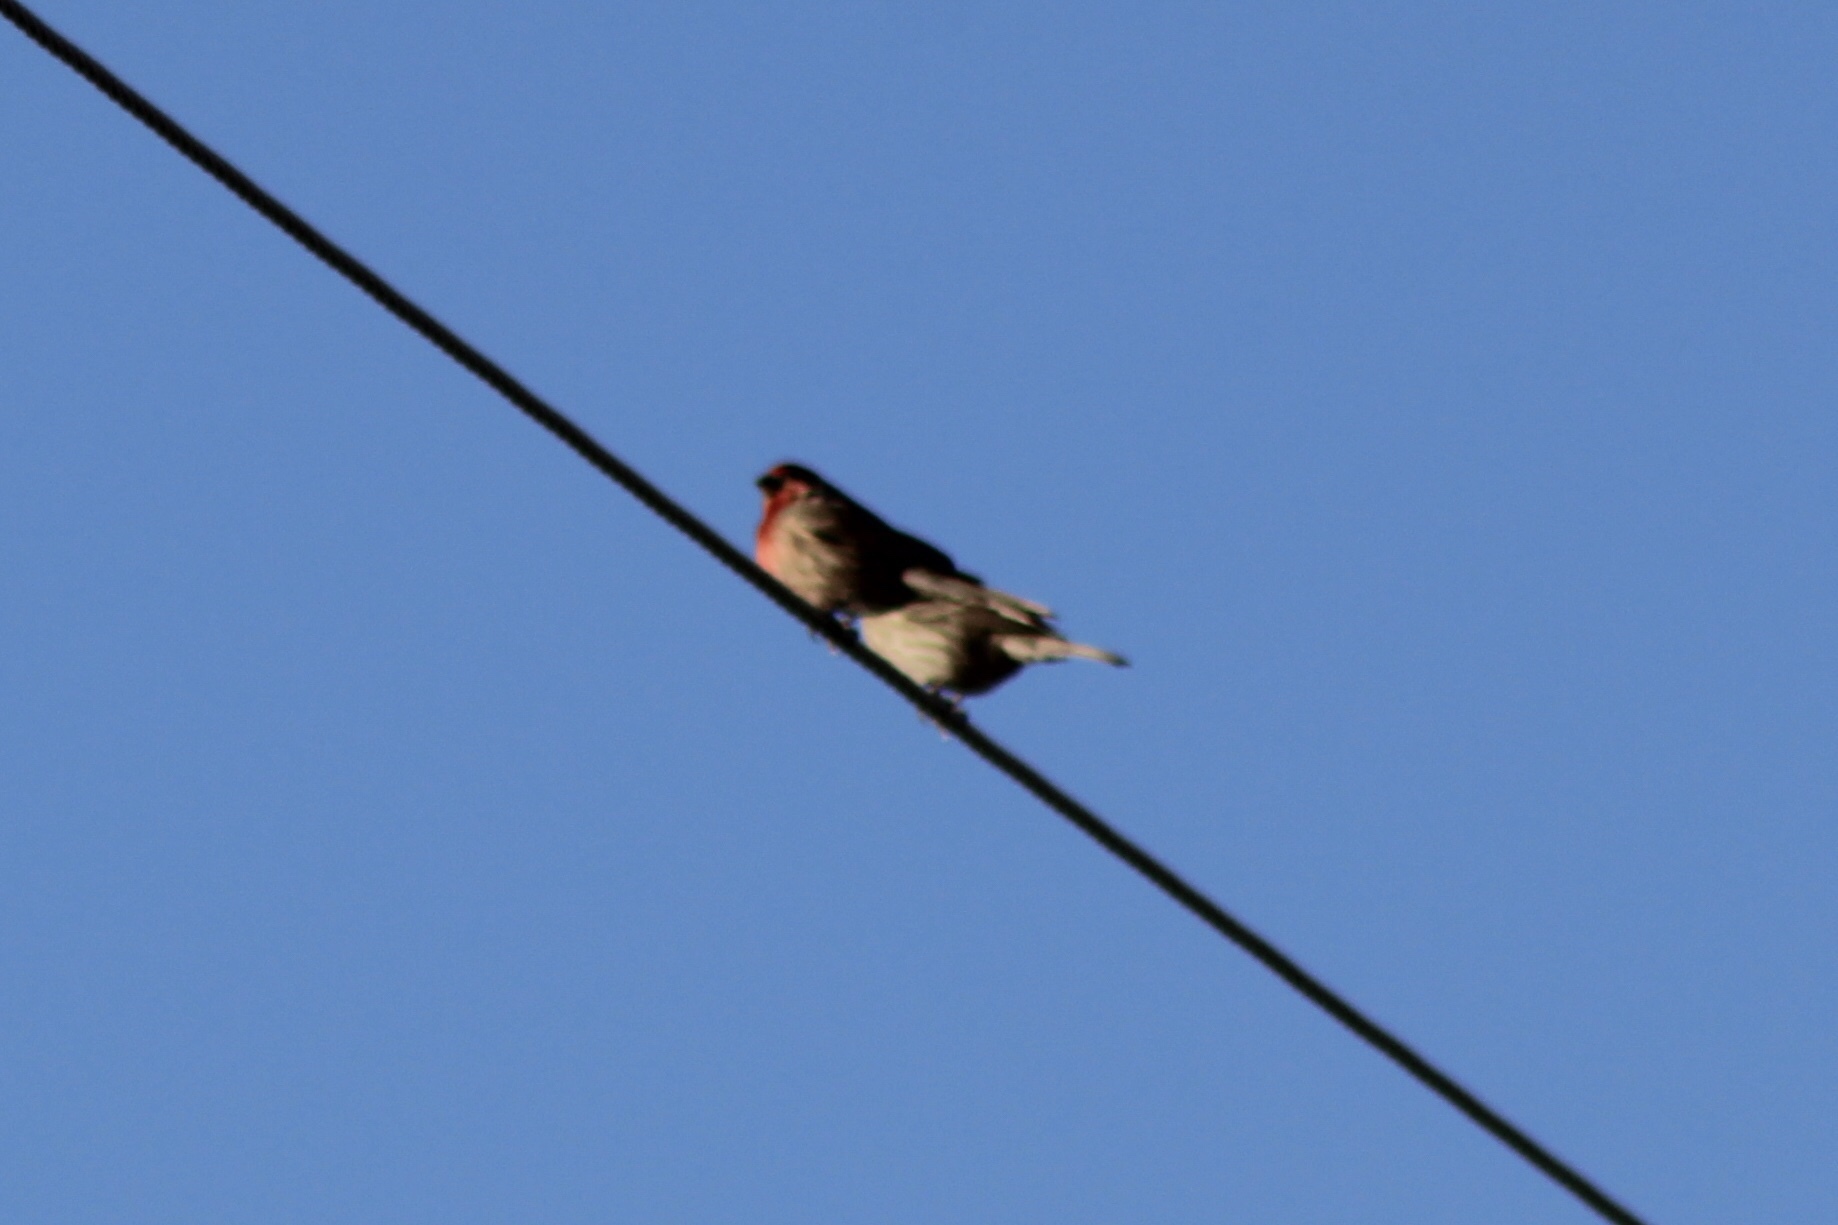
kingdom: Animalia
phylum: Chordata
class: Aves
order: Passeriformes
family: Fringillidae
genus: Haemorhous
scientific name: Haemorhous mexicanus
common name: House finch
